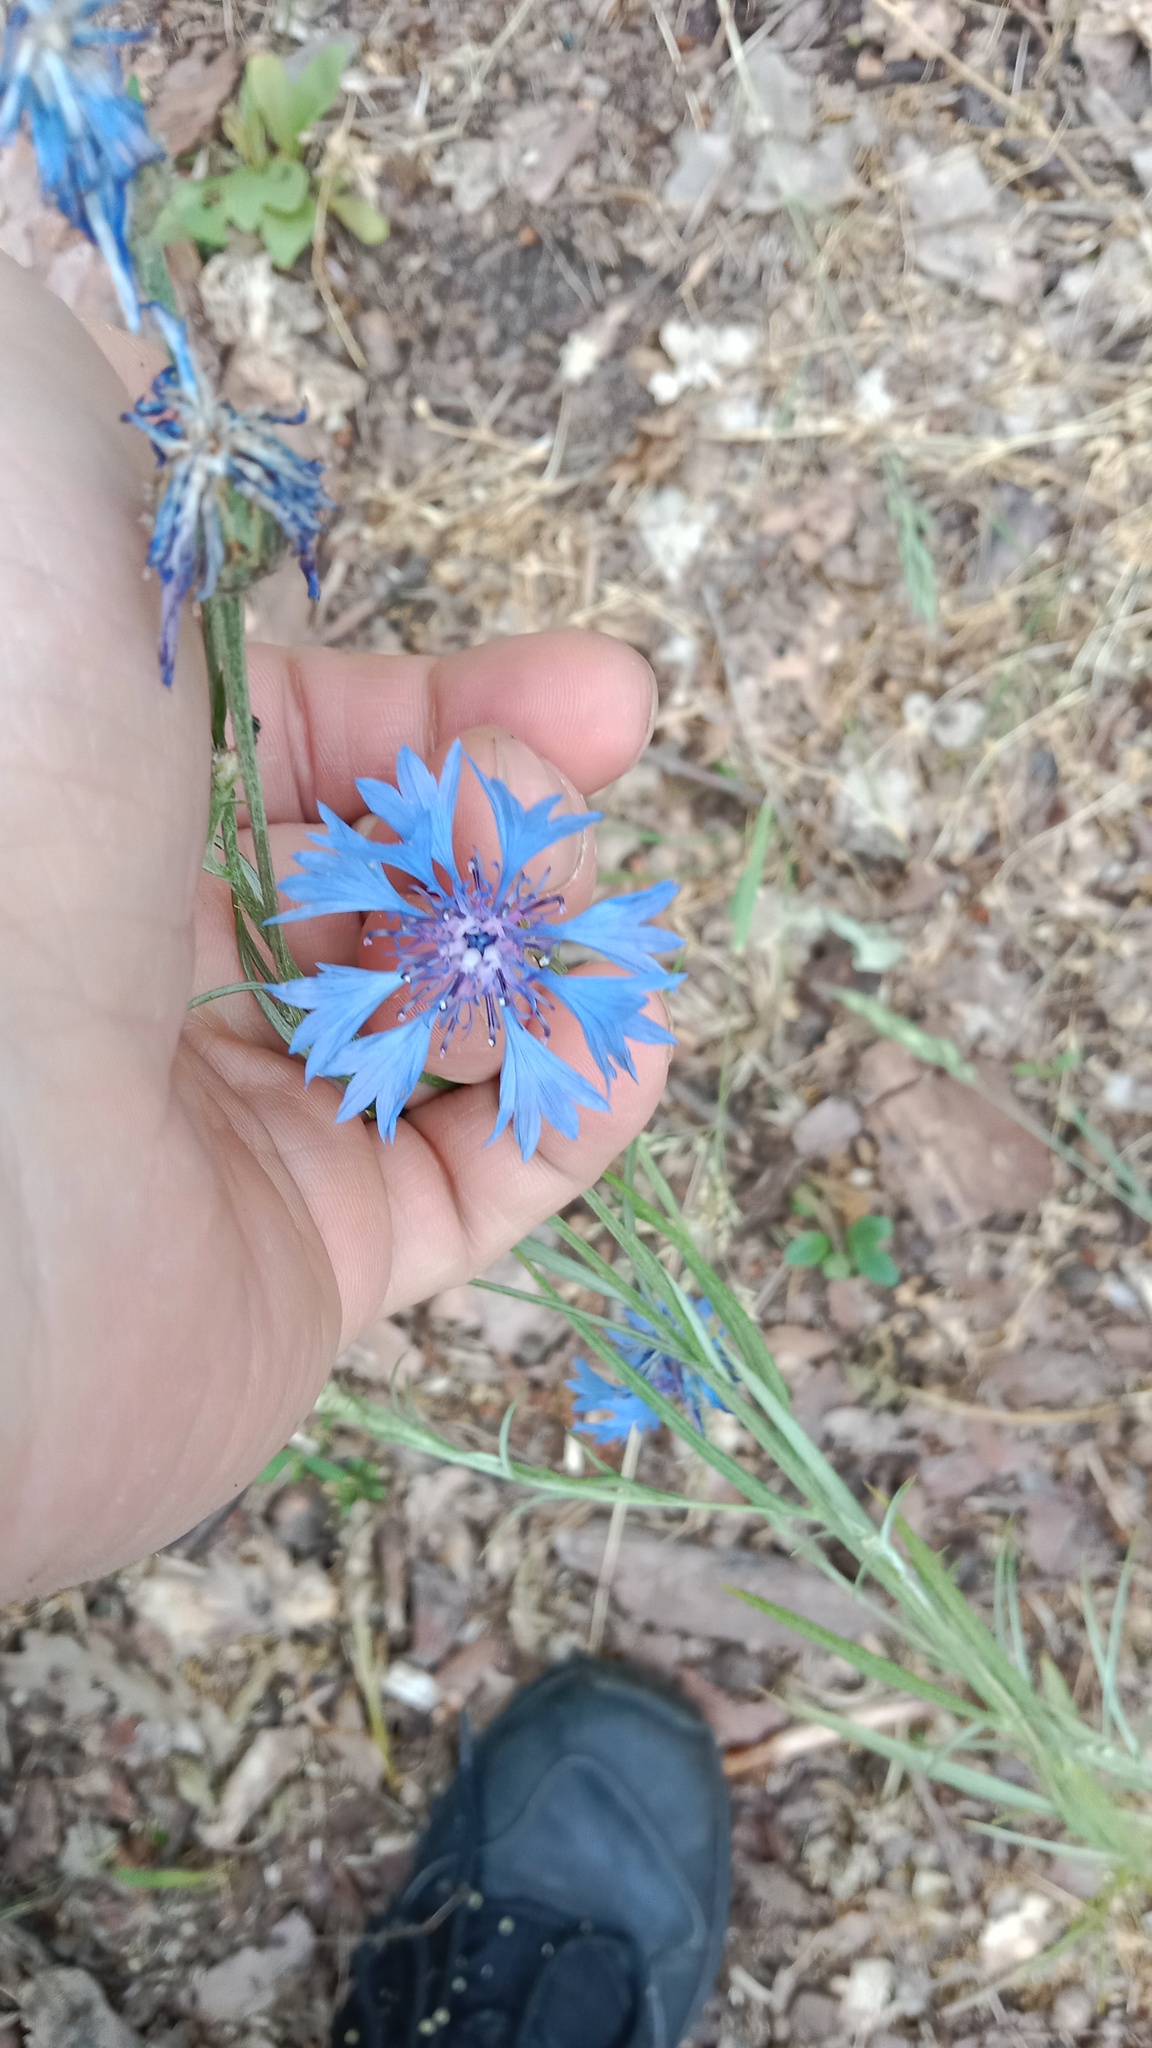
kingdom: Plantae
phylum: Tracheophyta
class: Magnoliopsida
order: Asterales
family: Asteraceae
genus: Centaurea
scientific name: Centaurea cyanus
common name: Cornflower
